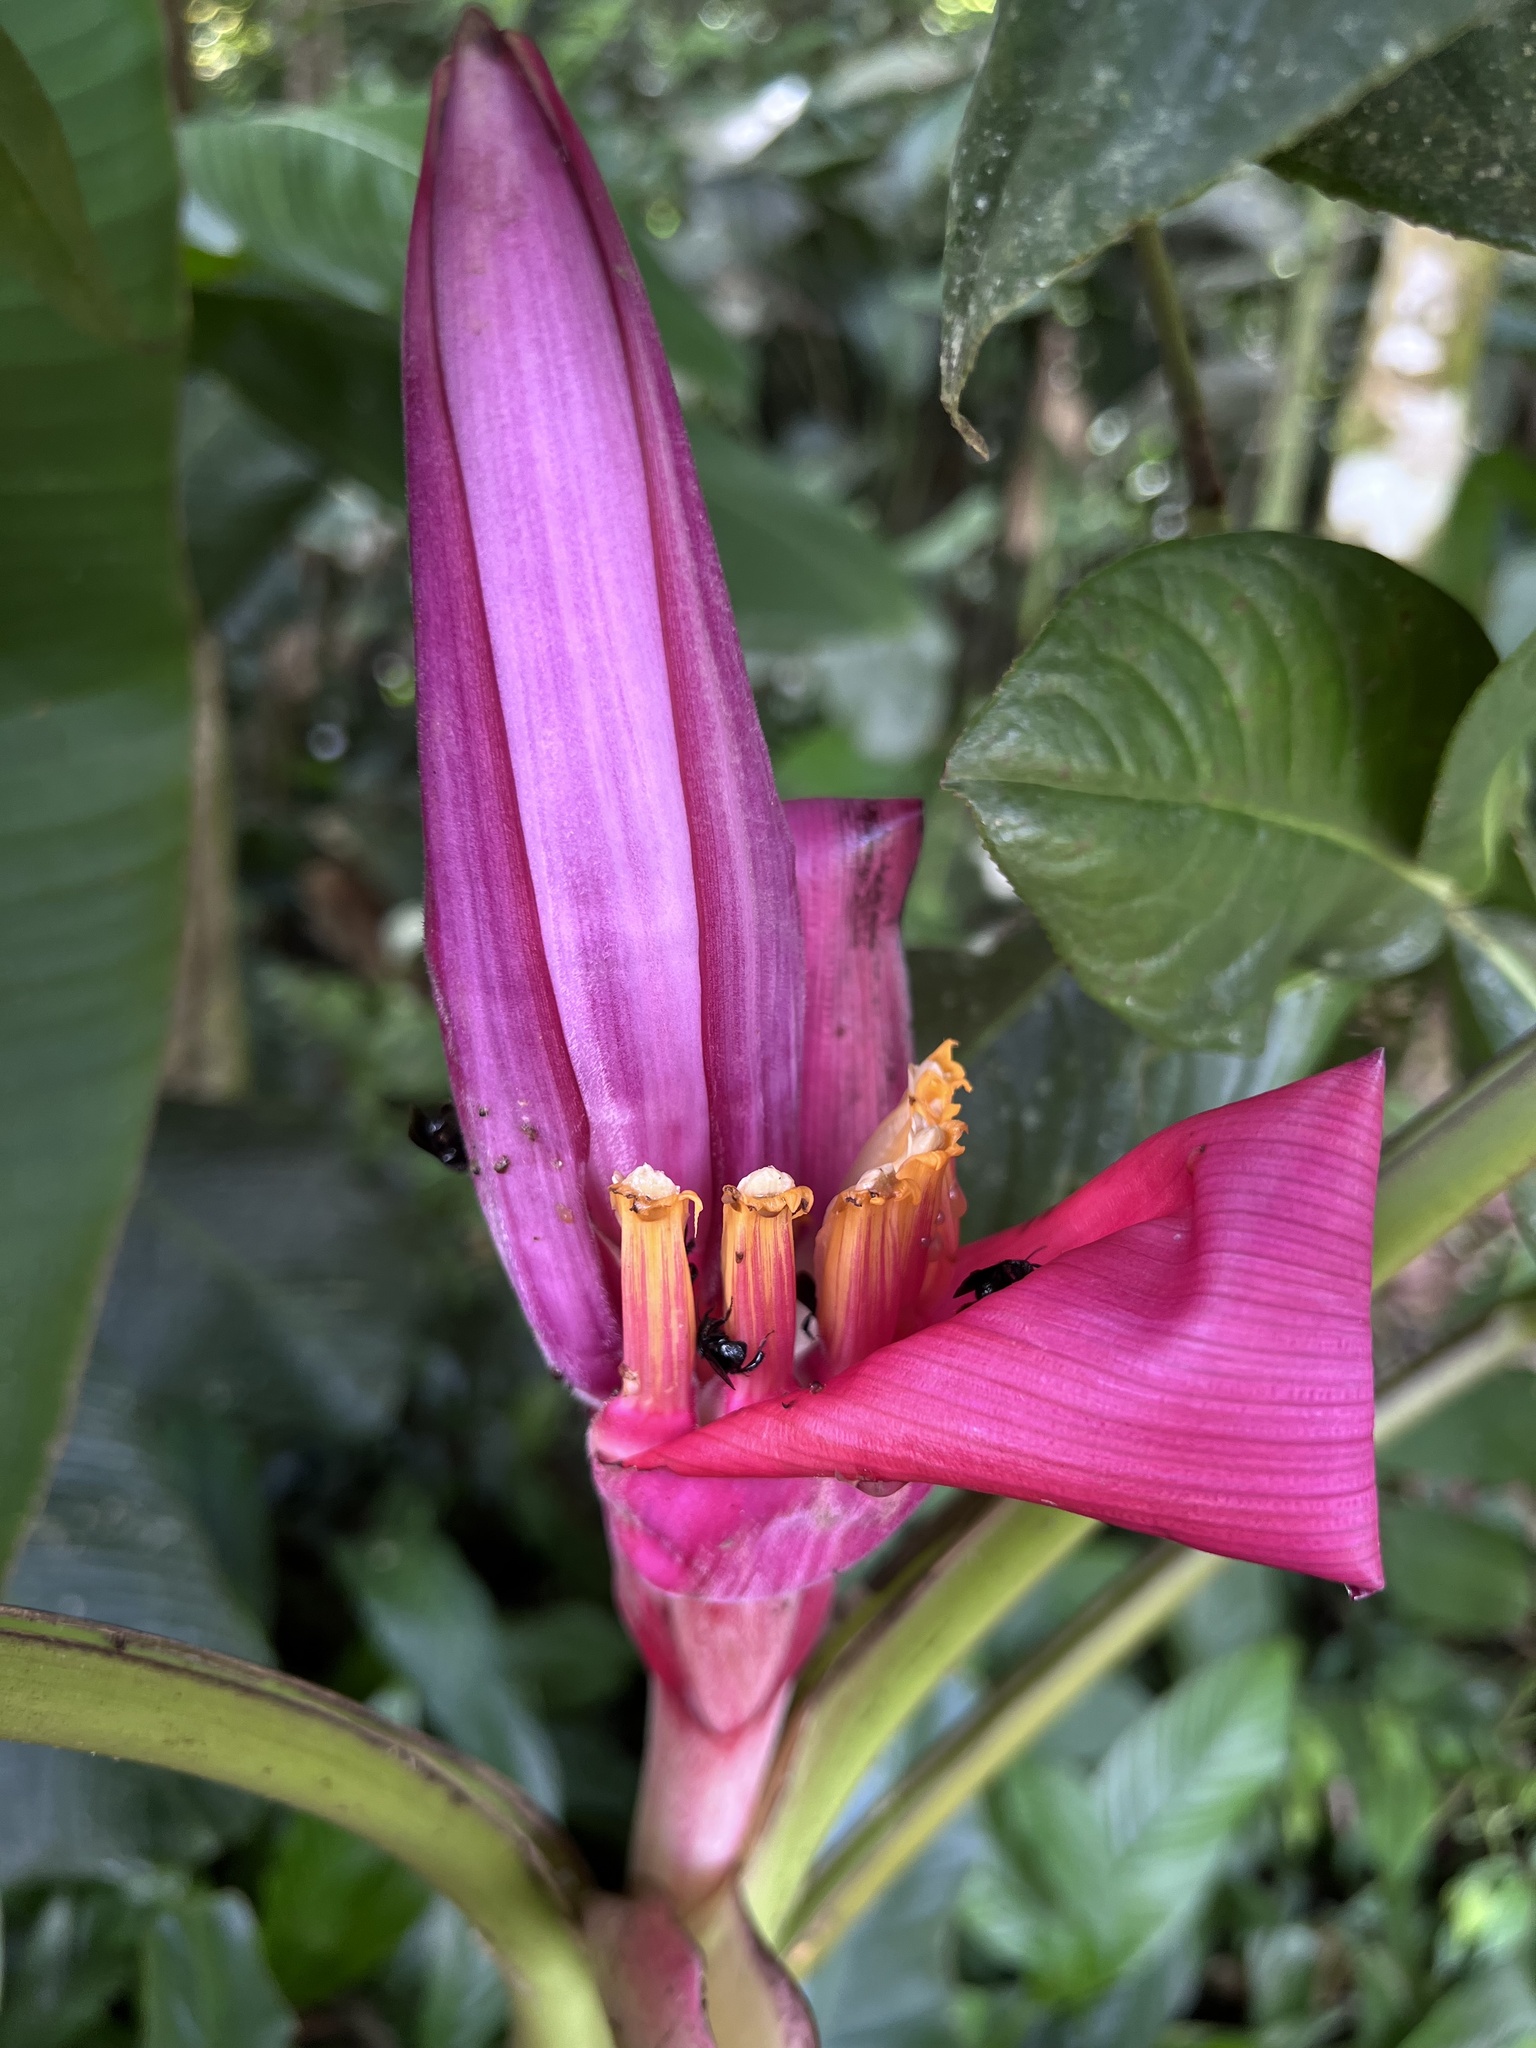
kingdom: Plantae
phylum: Tracheophyta
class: Liliopsida
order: Zingiberales
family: Musaceae
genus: Musa
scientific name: Musa velutina
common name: Pink velvet banana
